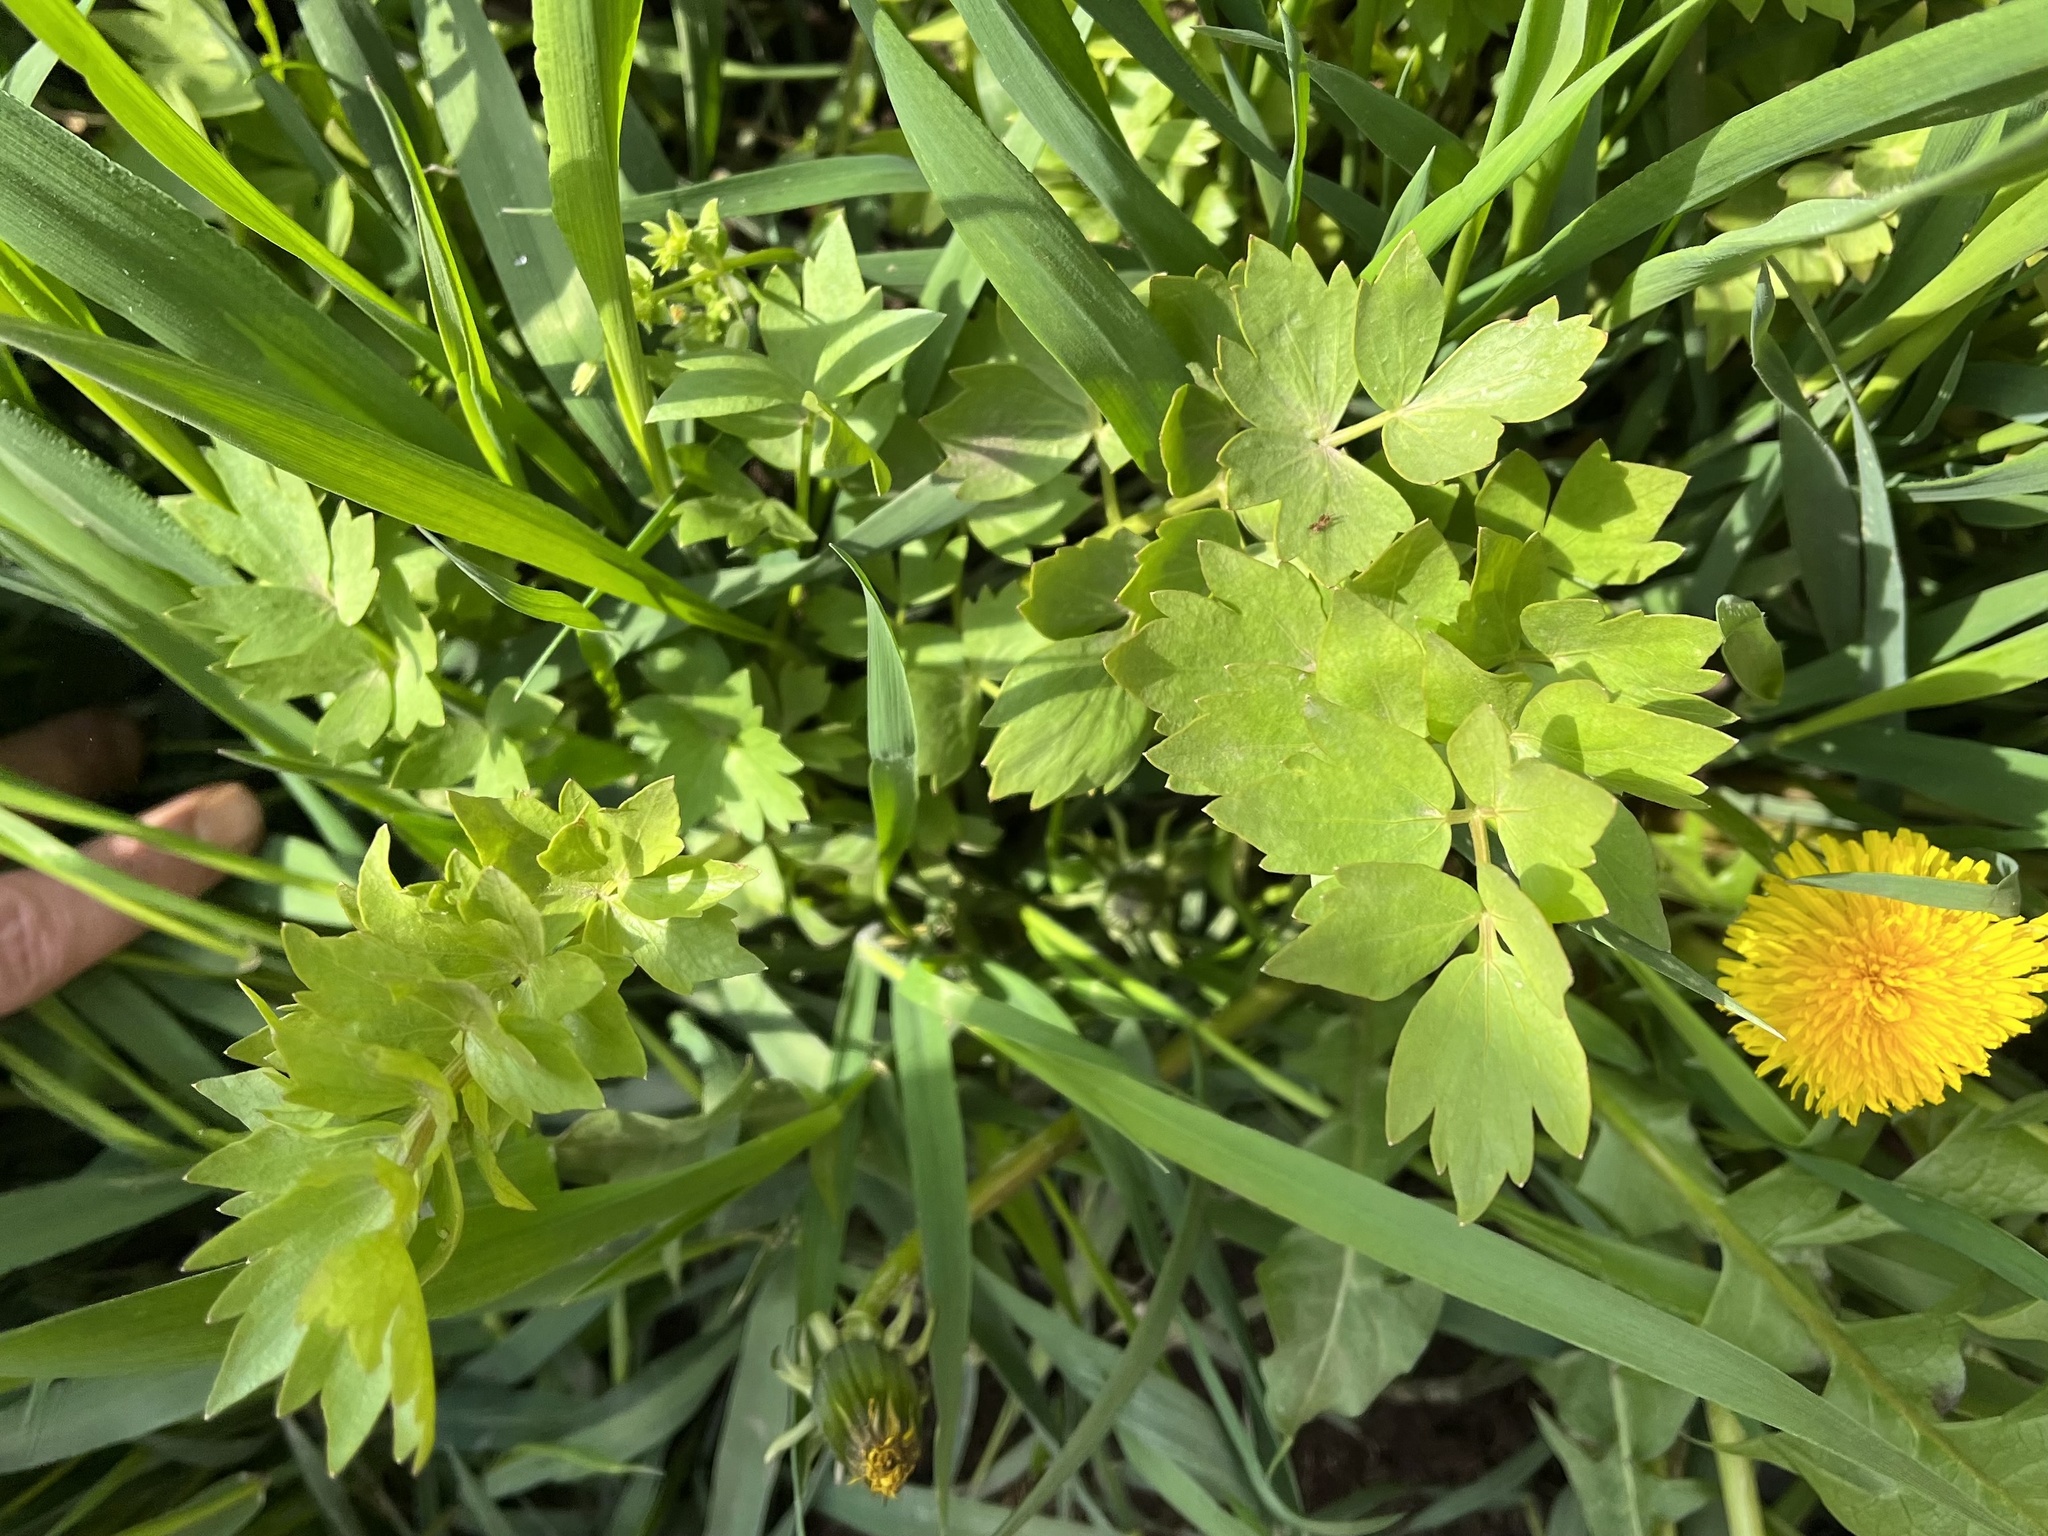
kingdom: Plantae
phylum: Tracheophyta
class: Magnoliopsida
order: Apiales
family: Apiaceae
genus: Levisticum
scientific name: Levisticum officinale
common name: Lovage
